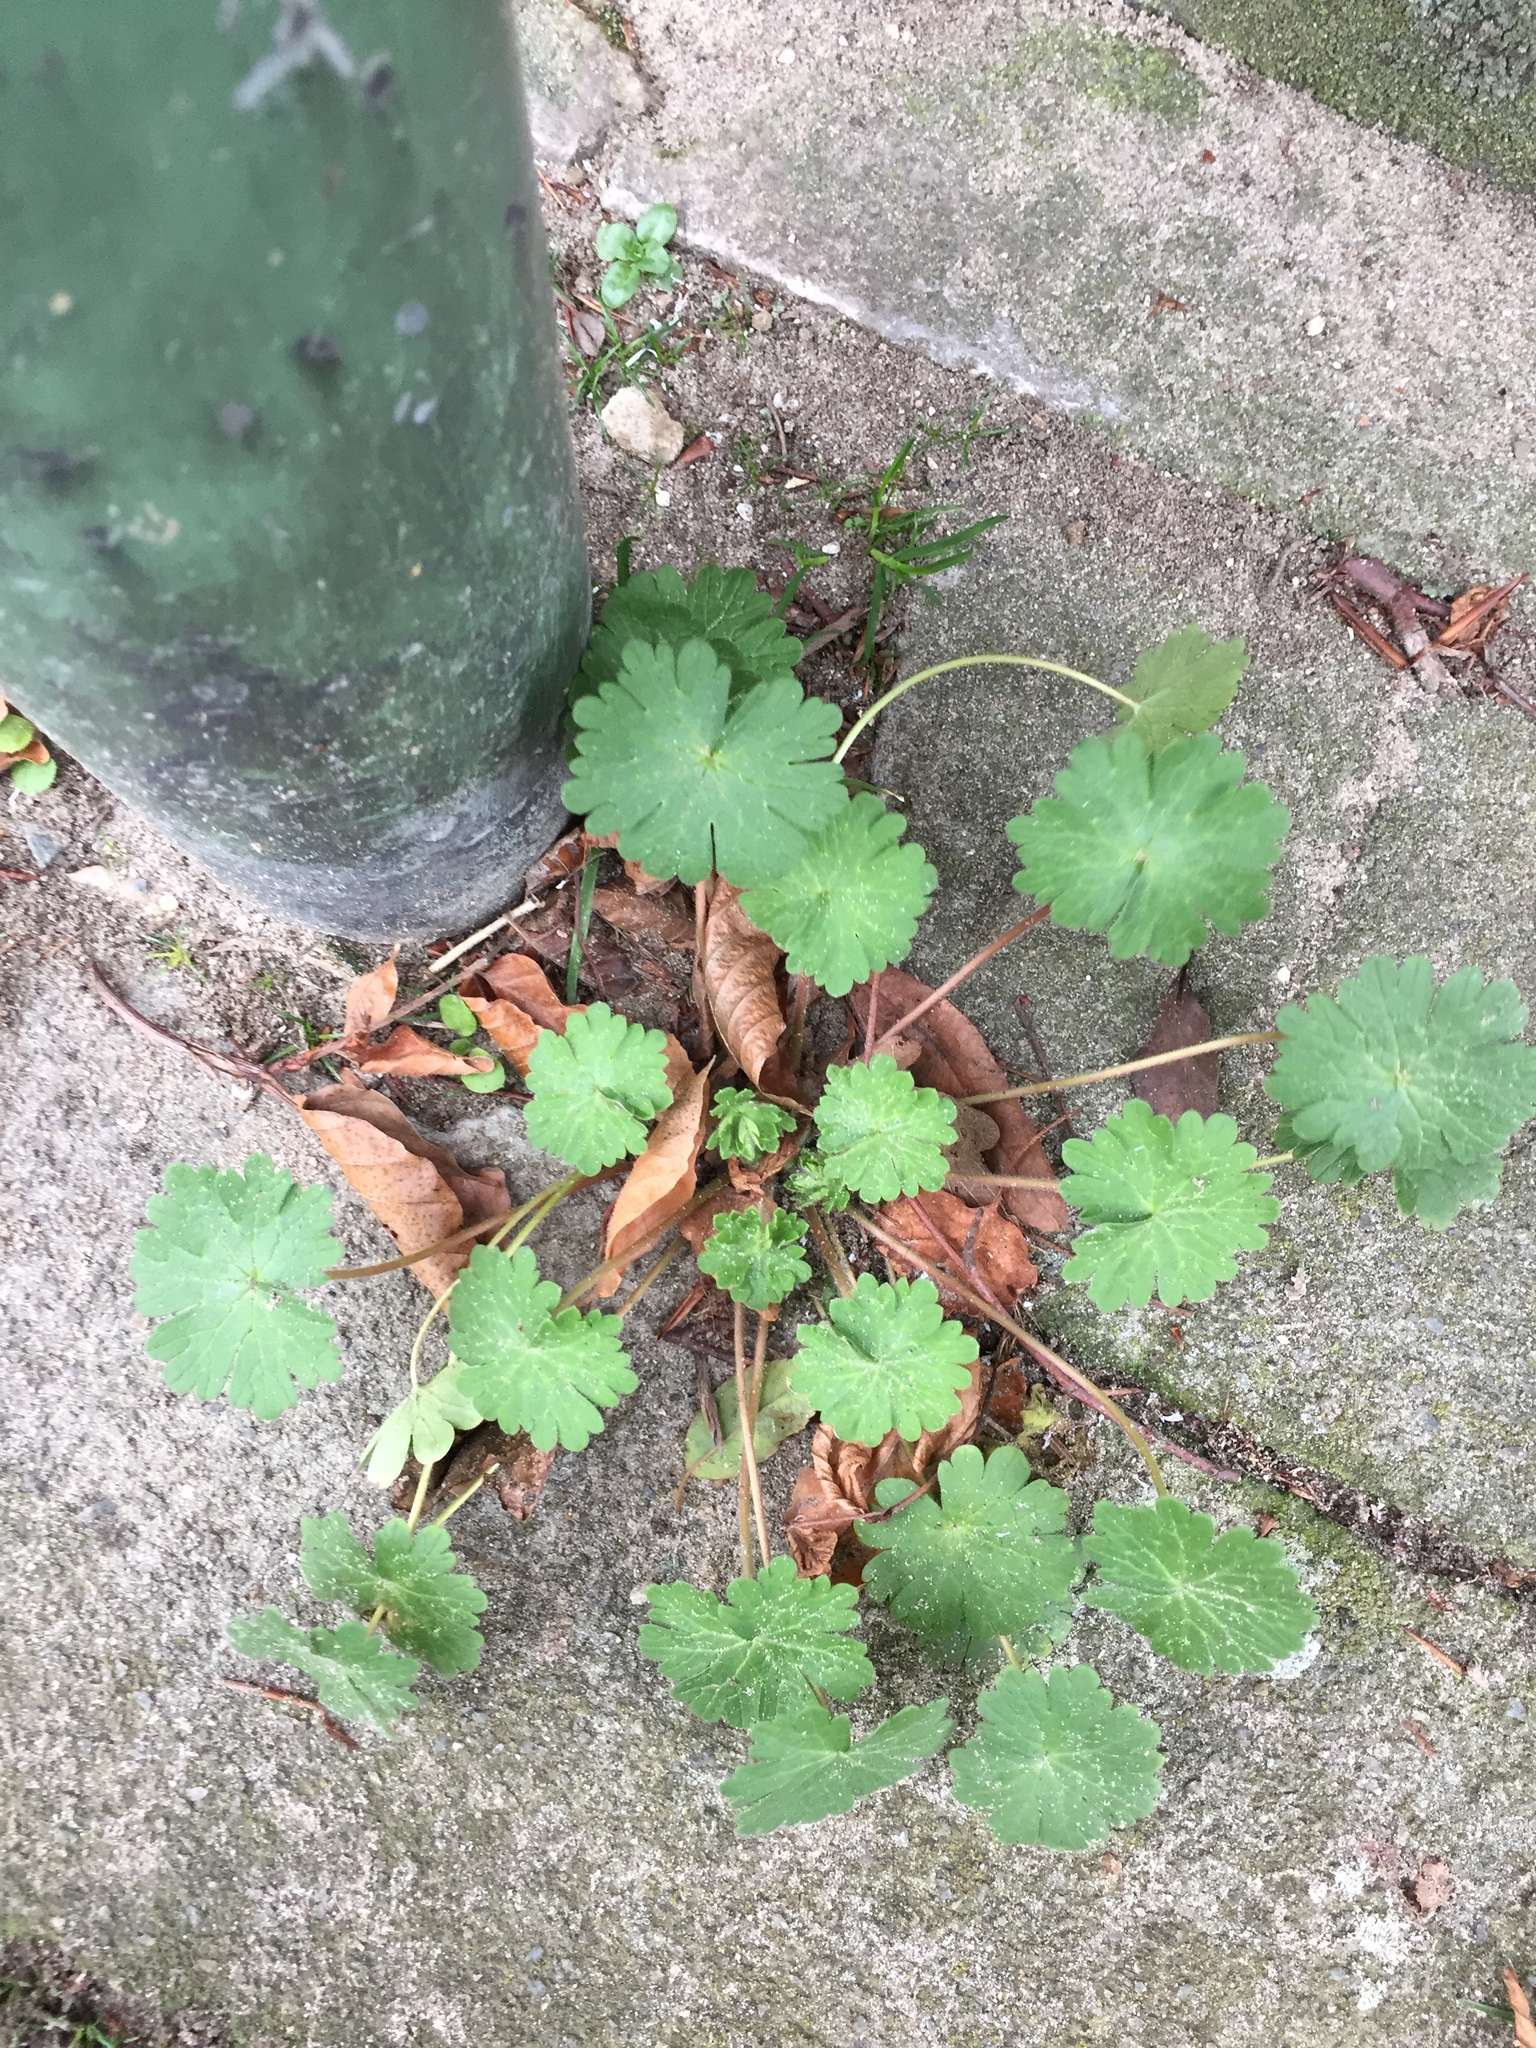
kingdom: Plantae
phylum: Tracheophyta
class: Magnoliopsida
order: Geraniales
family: Geraniaceae
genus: Geranium
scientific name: Geranium molle
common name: Dove's-foot crane's-bill
